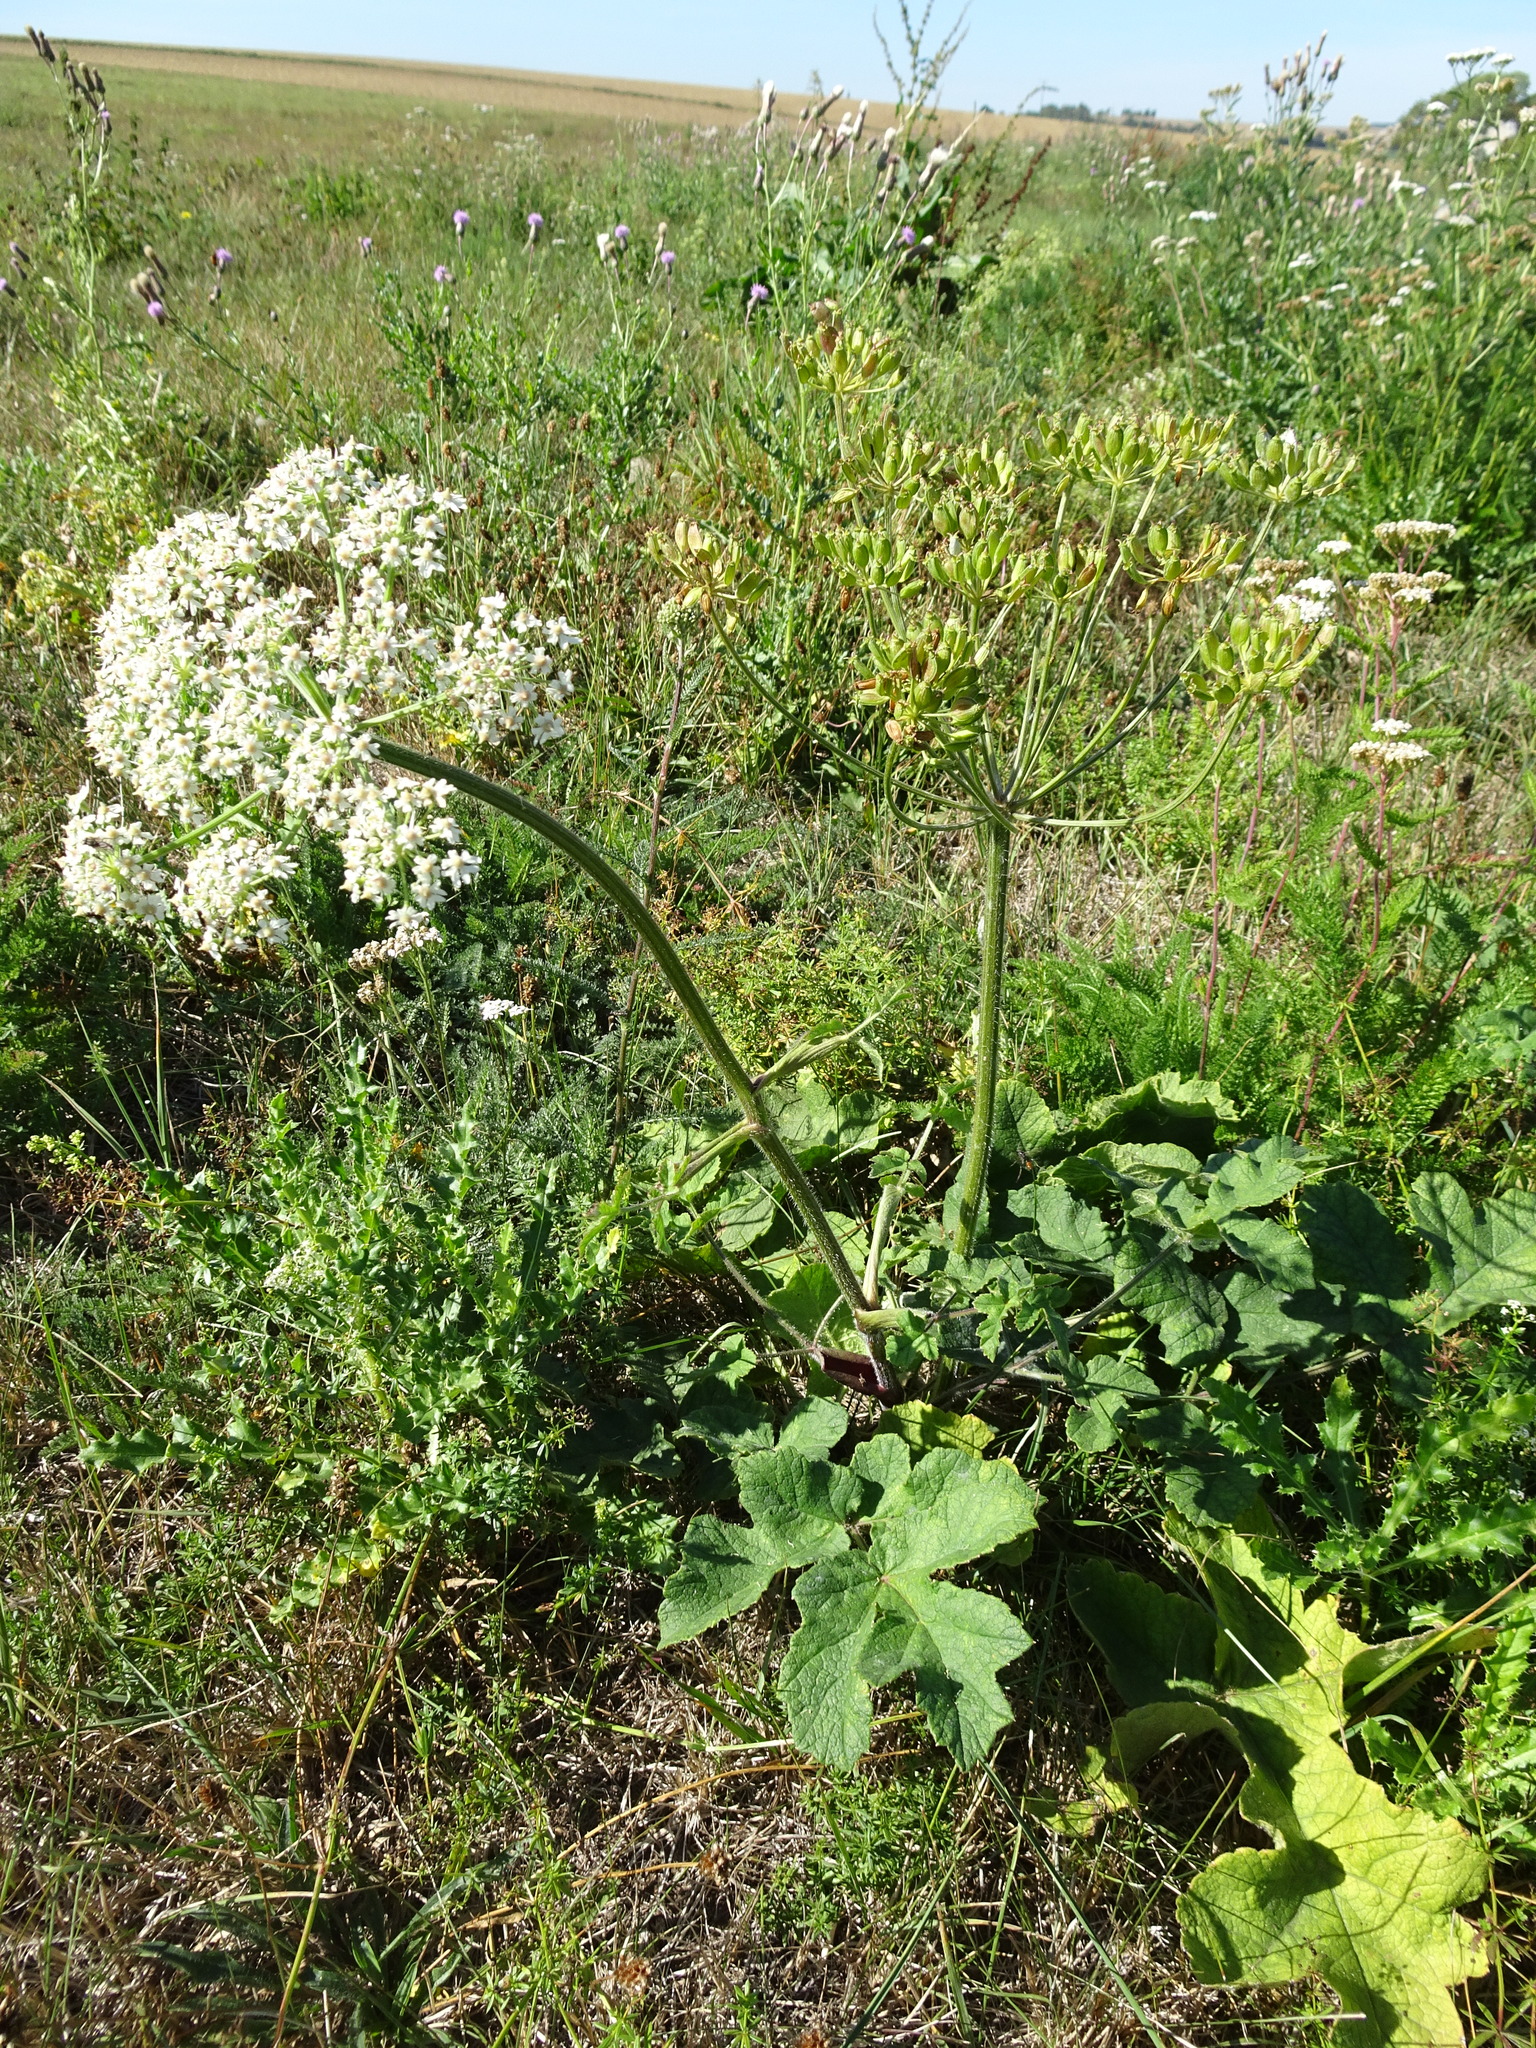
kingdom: Plantae
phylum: Tracheophyta
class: Magnoliopsida
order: Apiales
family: Apiaceae
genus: Heracleum
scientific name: Heracleum sphondylium
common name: Hogweed
